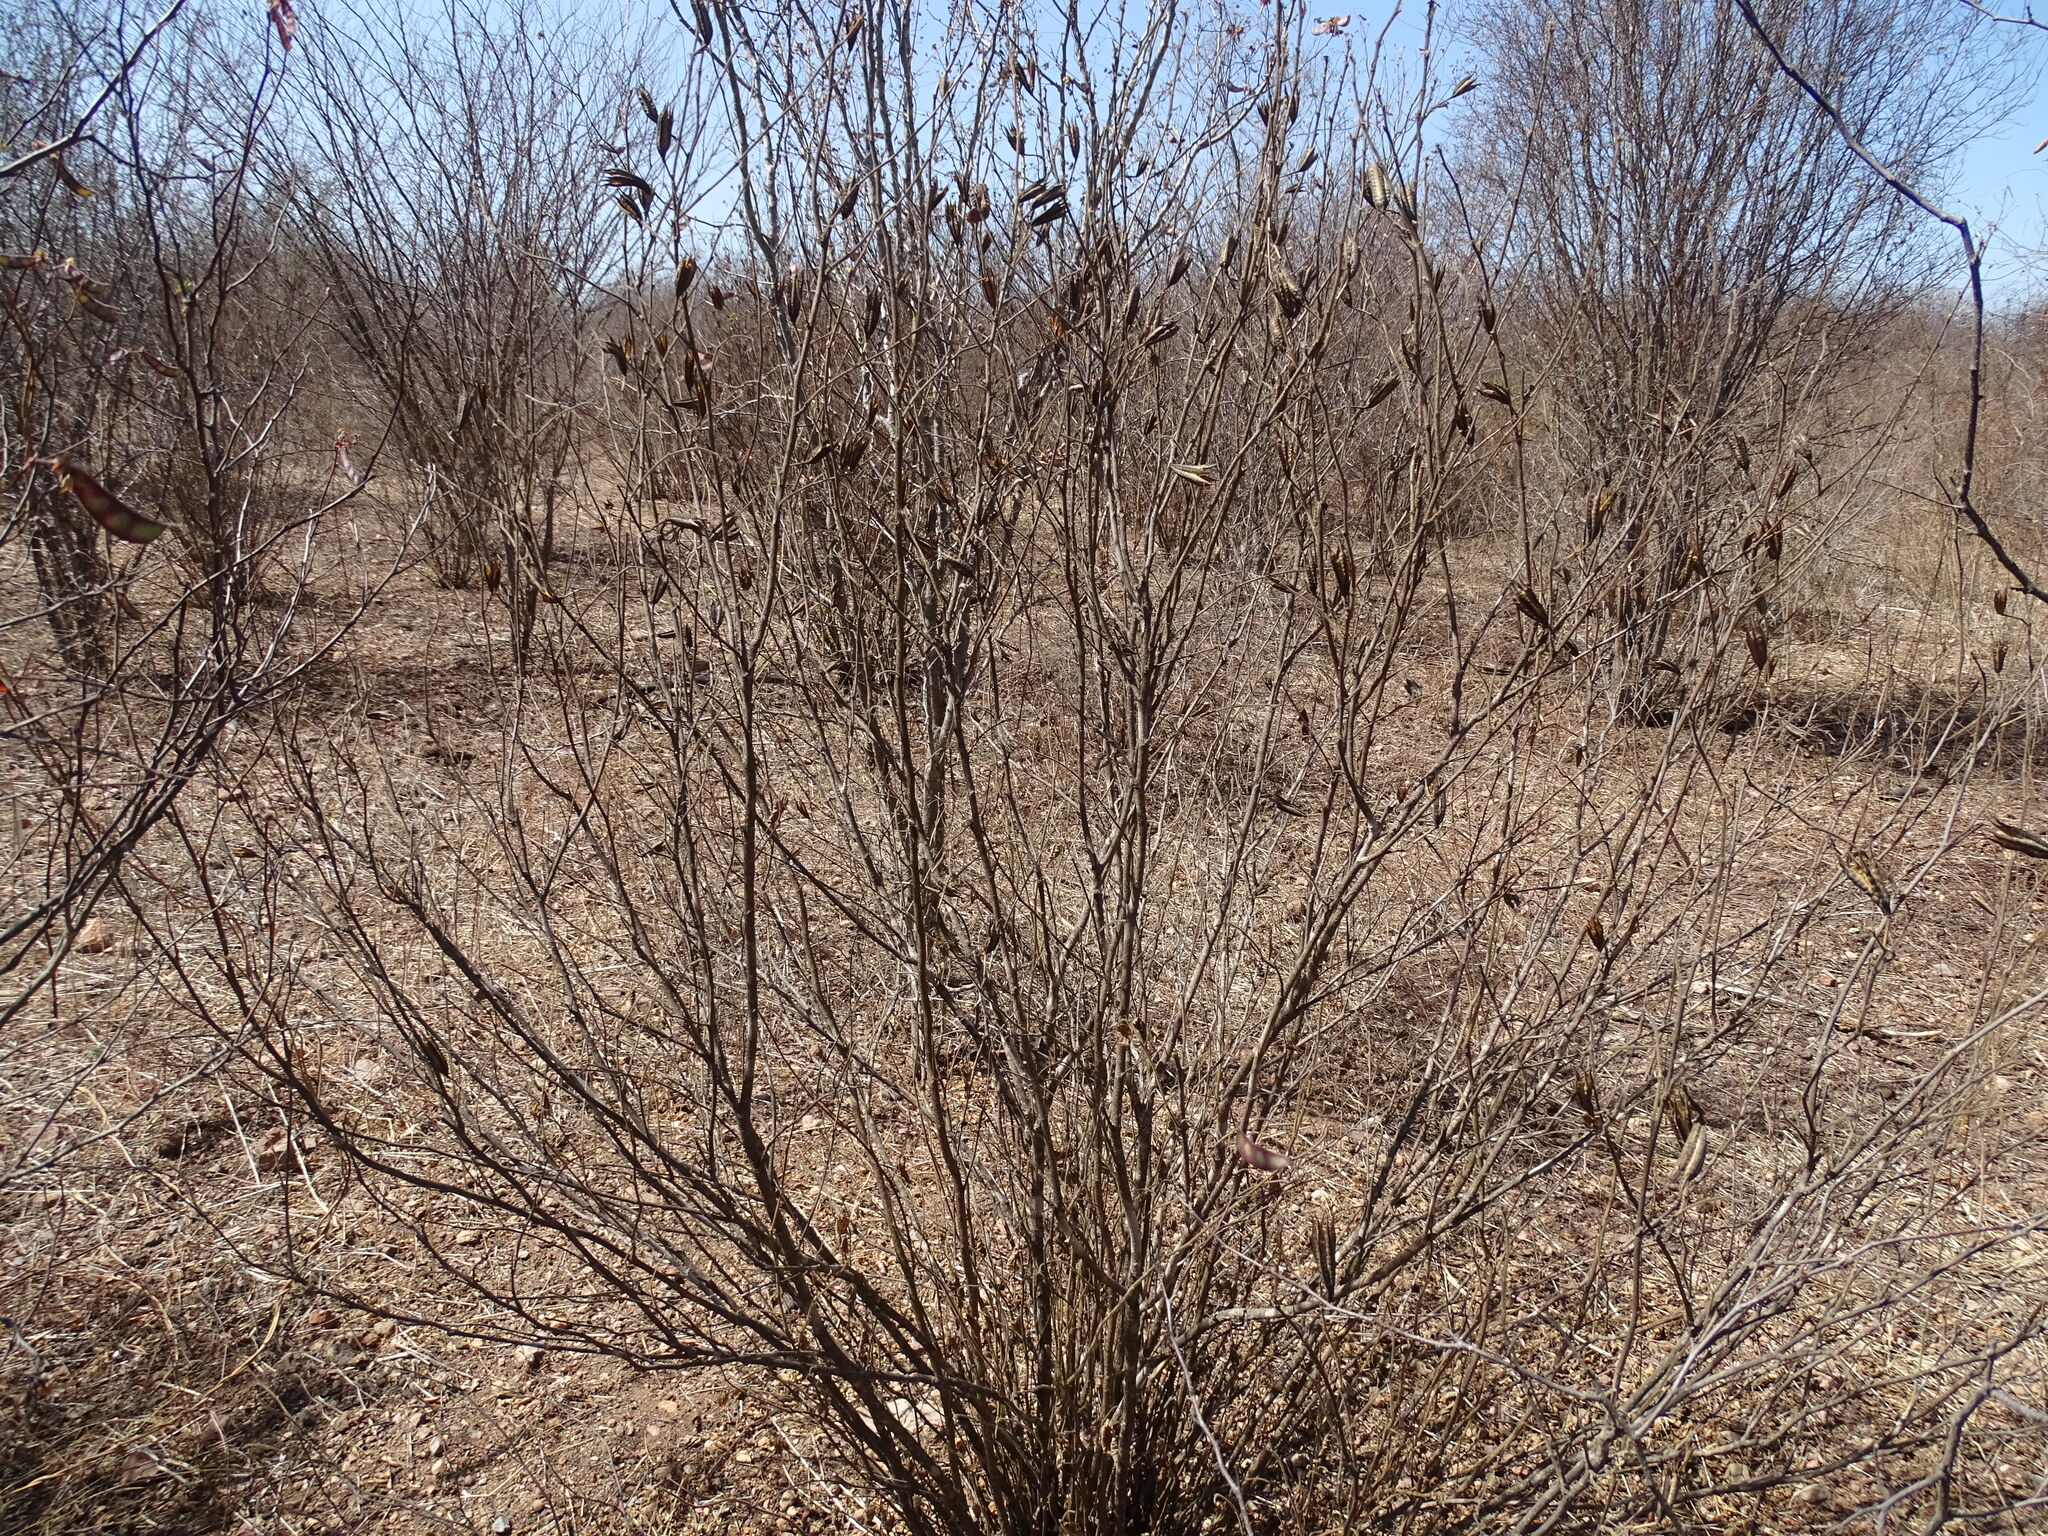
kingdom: Plantae
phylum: Tracheophyta
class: Magnoliopsida
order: Malvales
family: Malvaceae
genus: Helicteres
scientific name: Helicteres vegae
